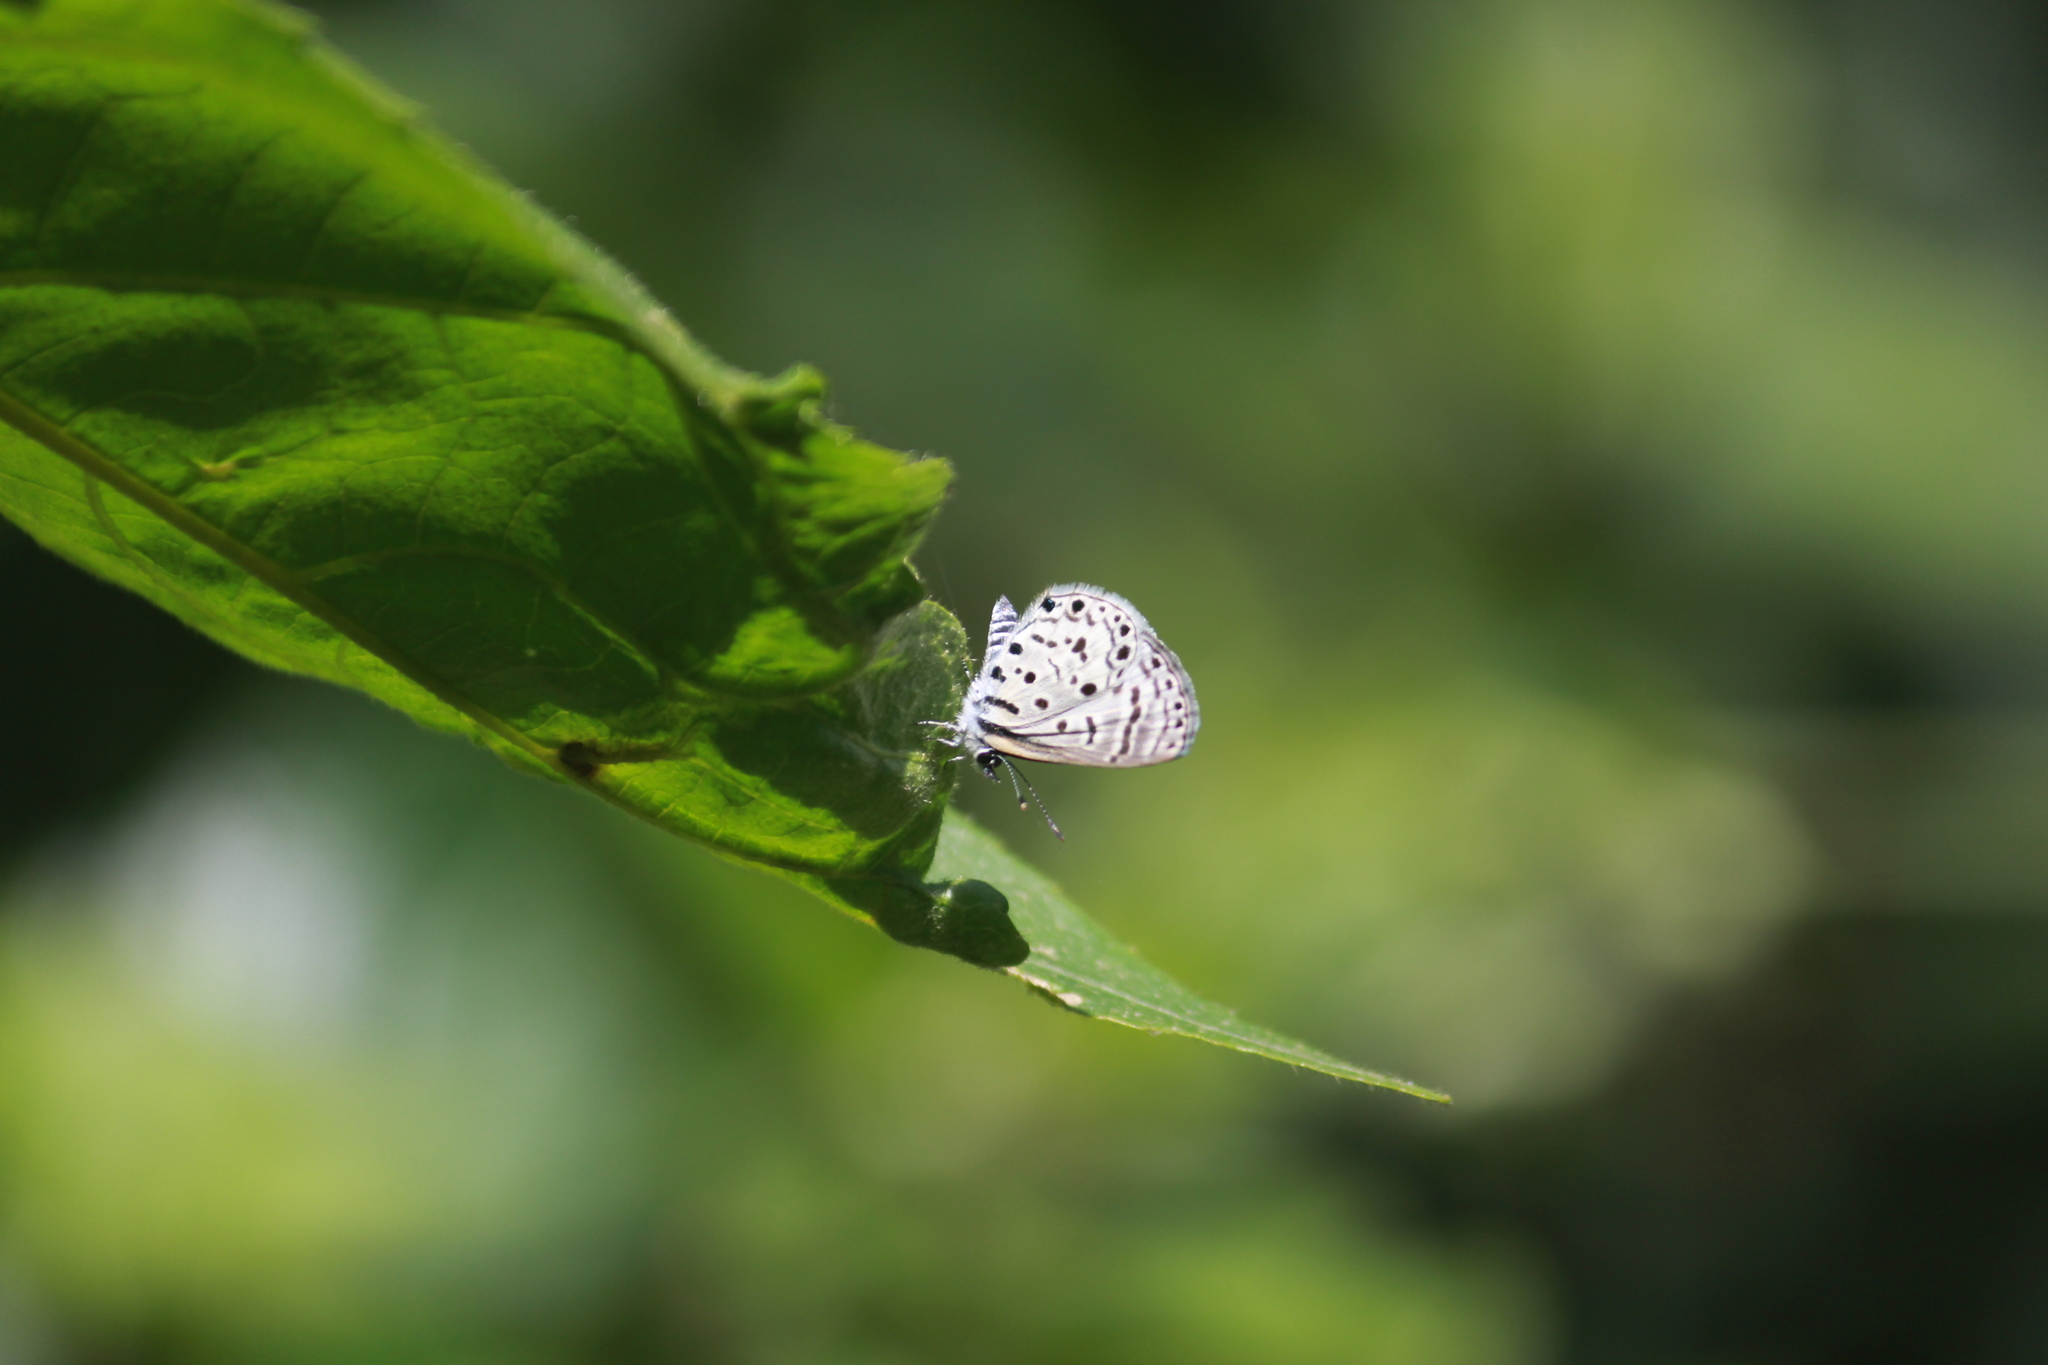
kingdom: Animalia
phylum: Arthropoda
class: Insecta
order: Lepidoptera
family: Lycaenidae
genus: Azanus
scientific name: Azanus moriqua
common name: Thorn-tree babul blue
